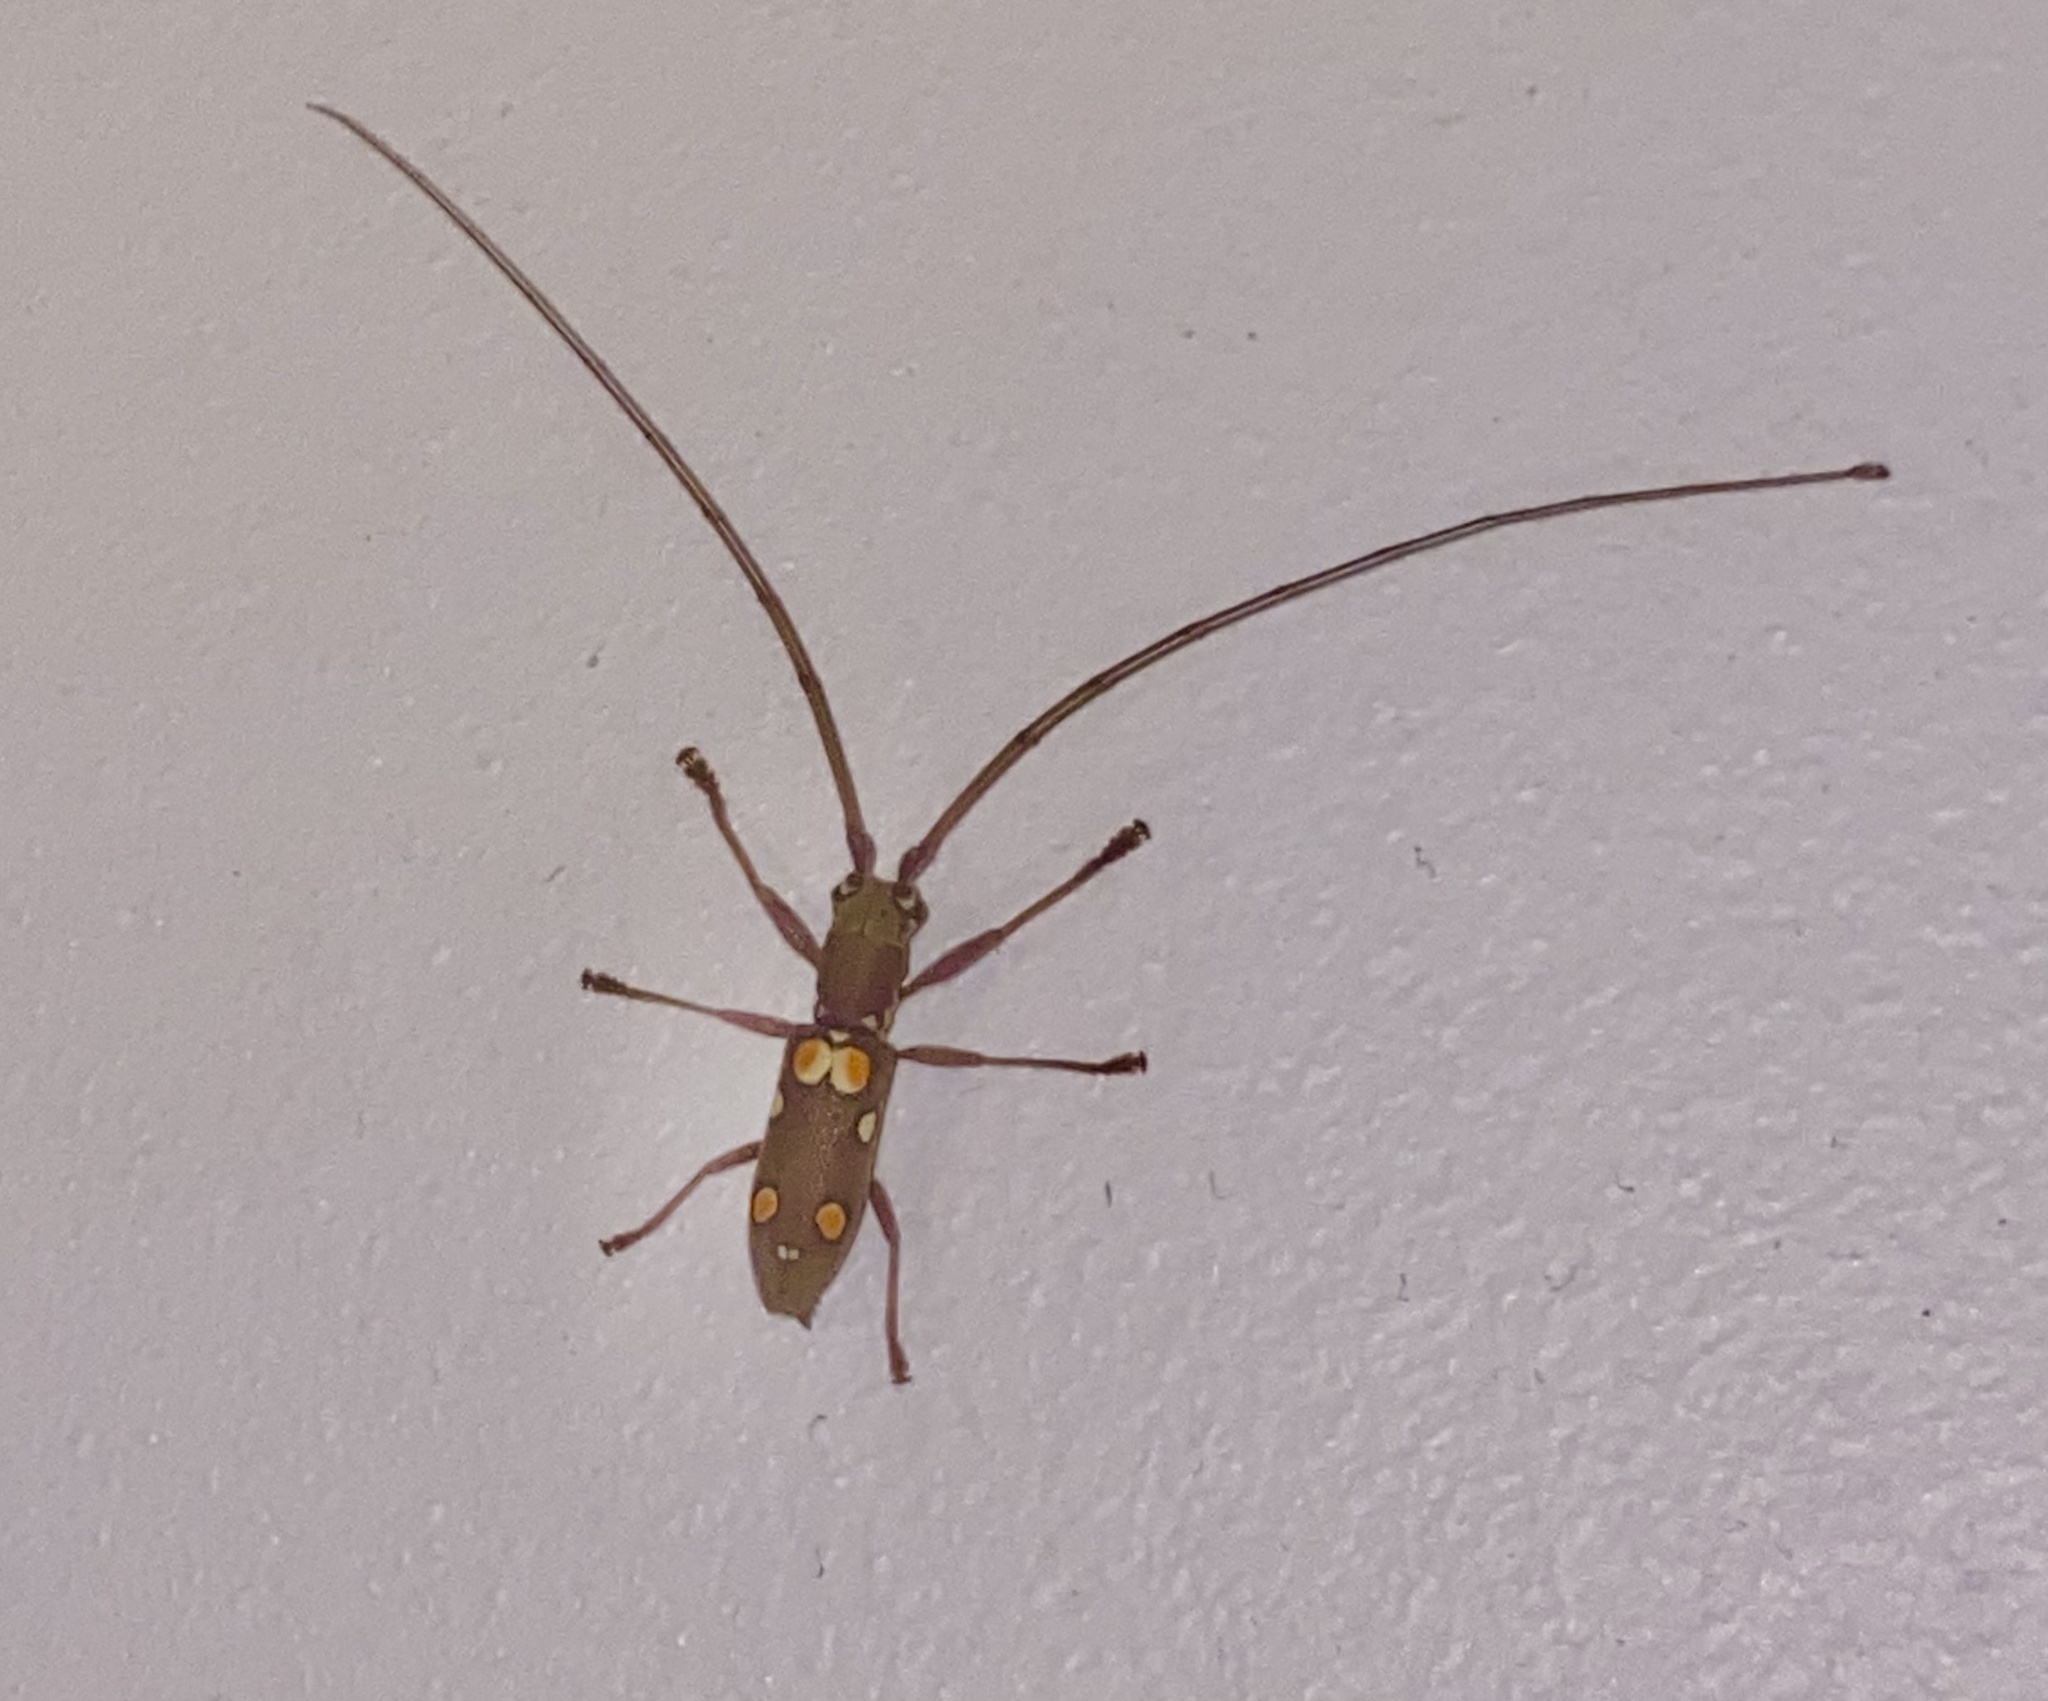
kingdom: Animalia
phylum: Arthropoda
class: Insecta
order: Coleoptera
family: Cerambycidae
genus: Olenecamptus
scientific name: Olenecamptus bilobus
